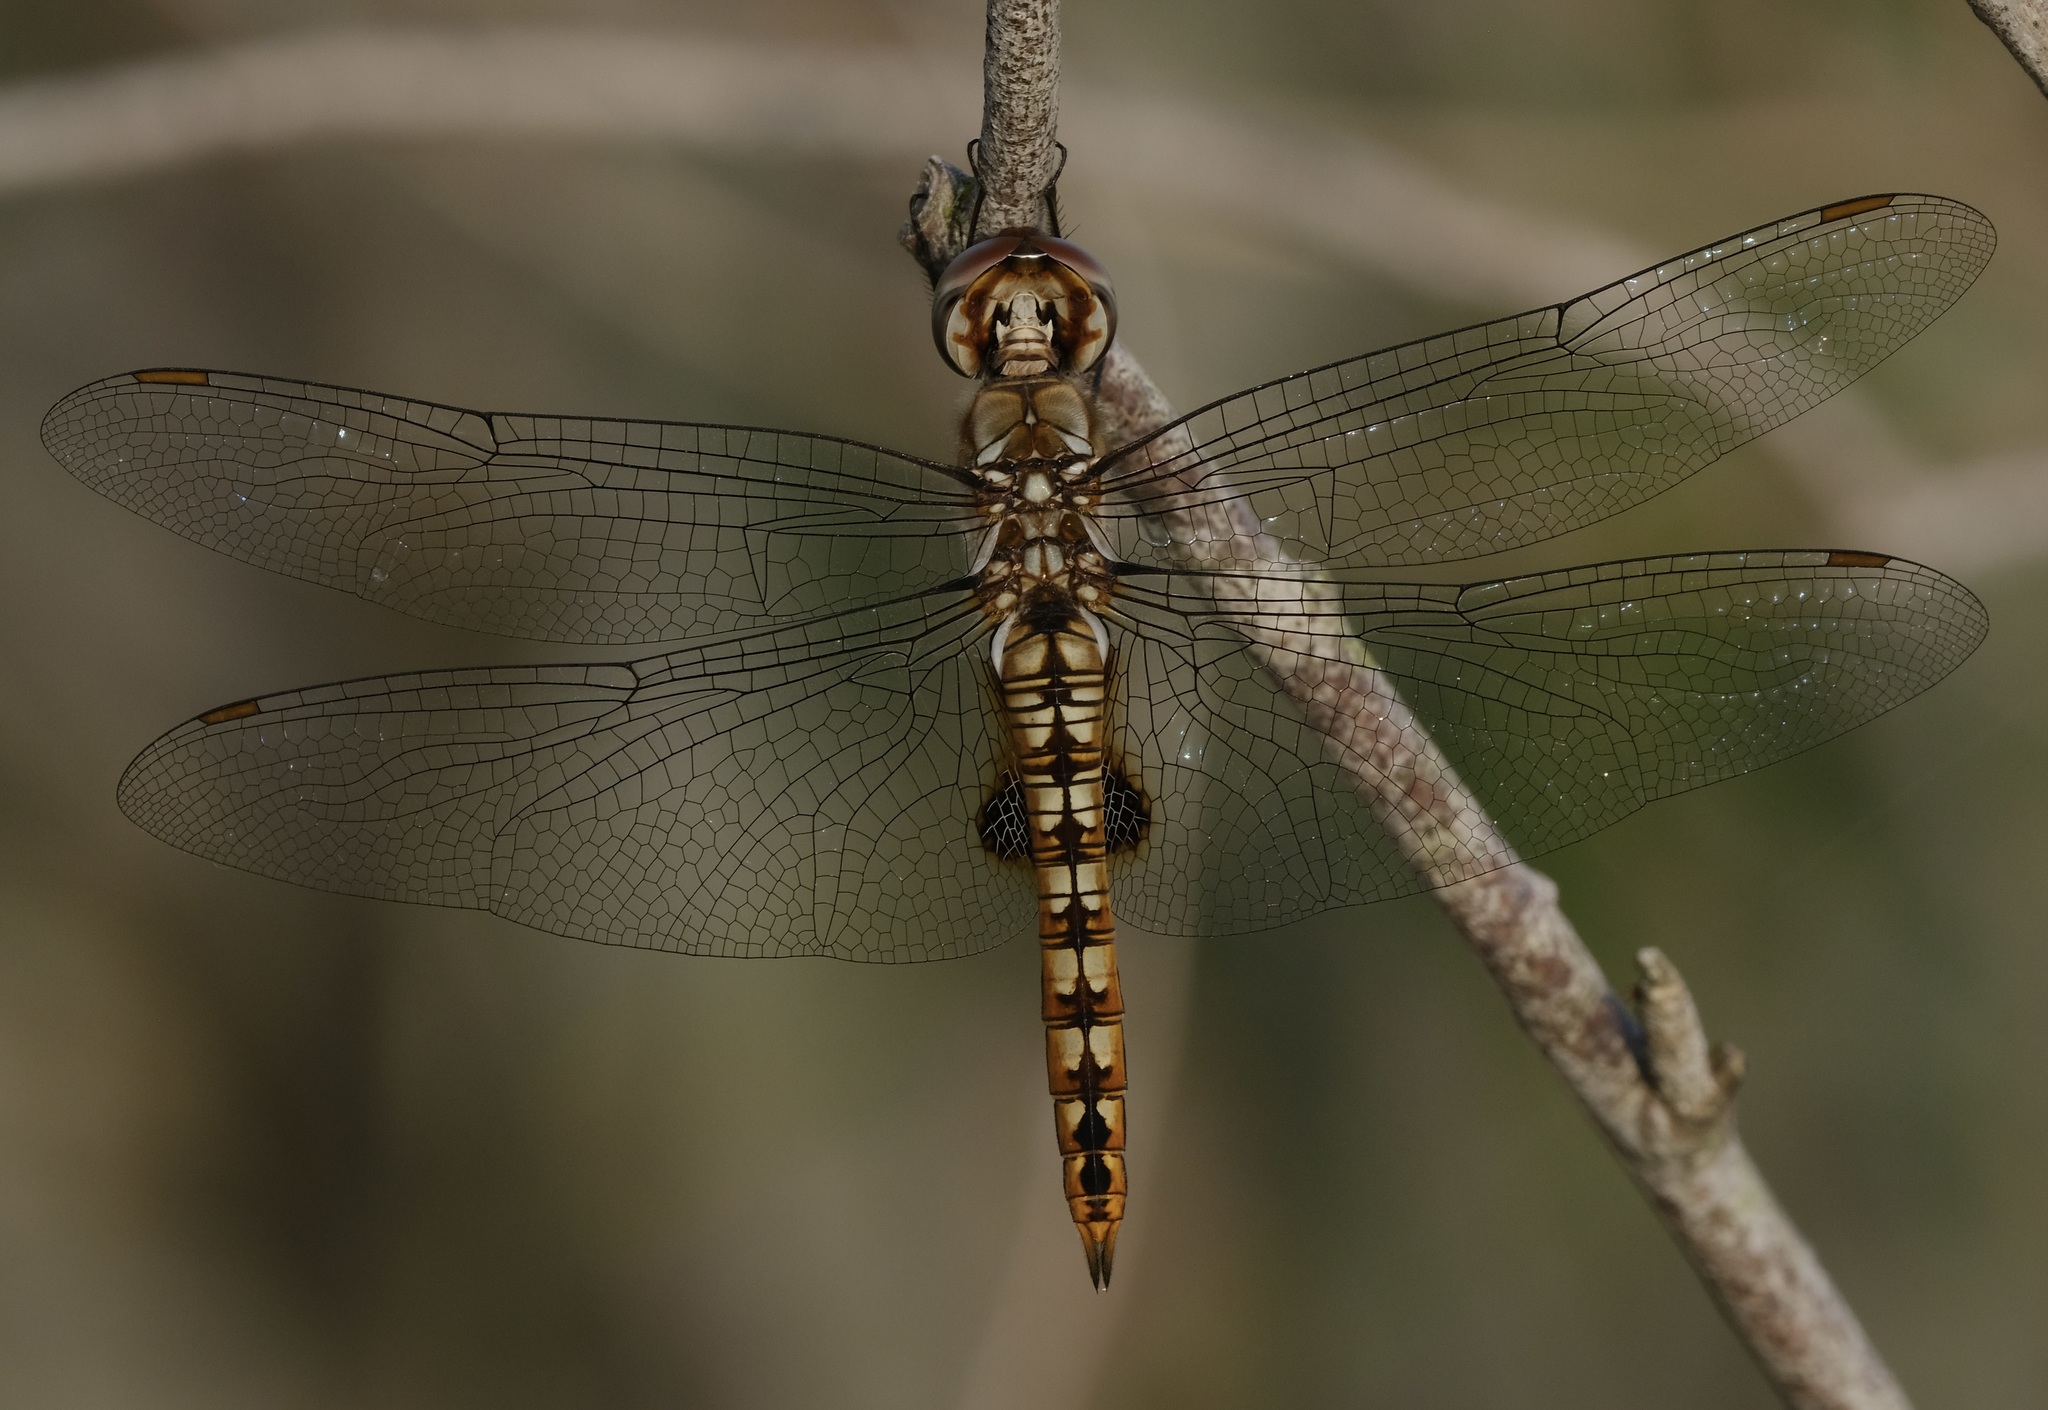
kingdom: Animalia
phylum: Arthropoda
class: Insecta
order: Odonata
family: Libellulidae
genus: Pantala
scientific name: Pantala hymenaea
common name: Spot-winged glider
